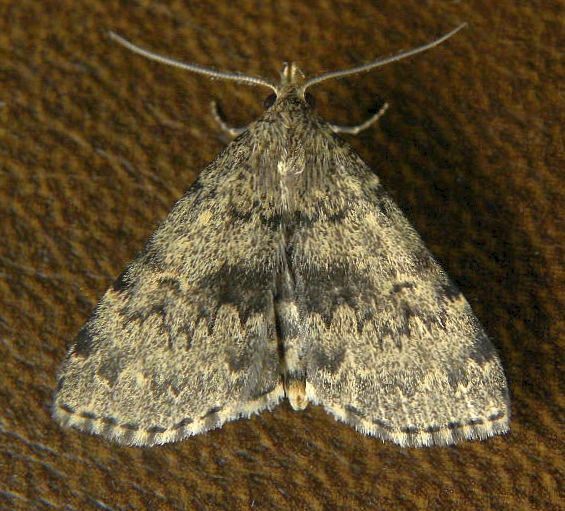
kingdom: Animalia
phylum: Arthropoda
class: Insecta
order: Lepidoptera
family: Erebidae
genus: Idia
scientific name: Idia denticulalis
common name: Toothed idia moth
